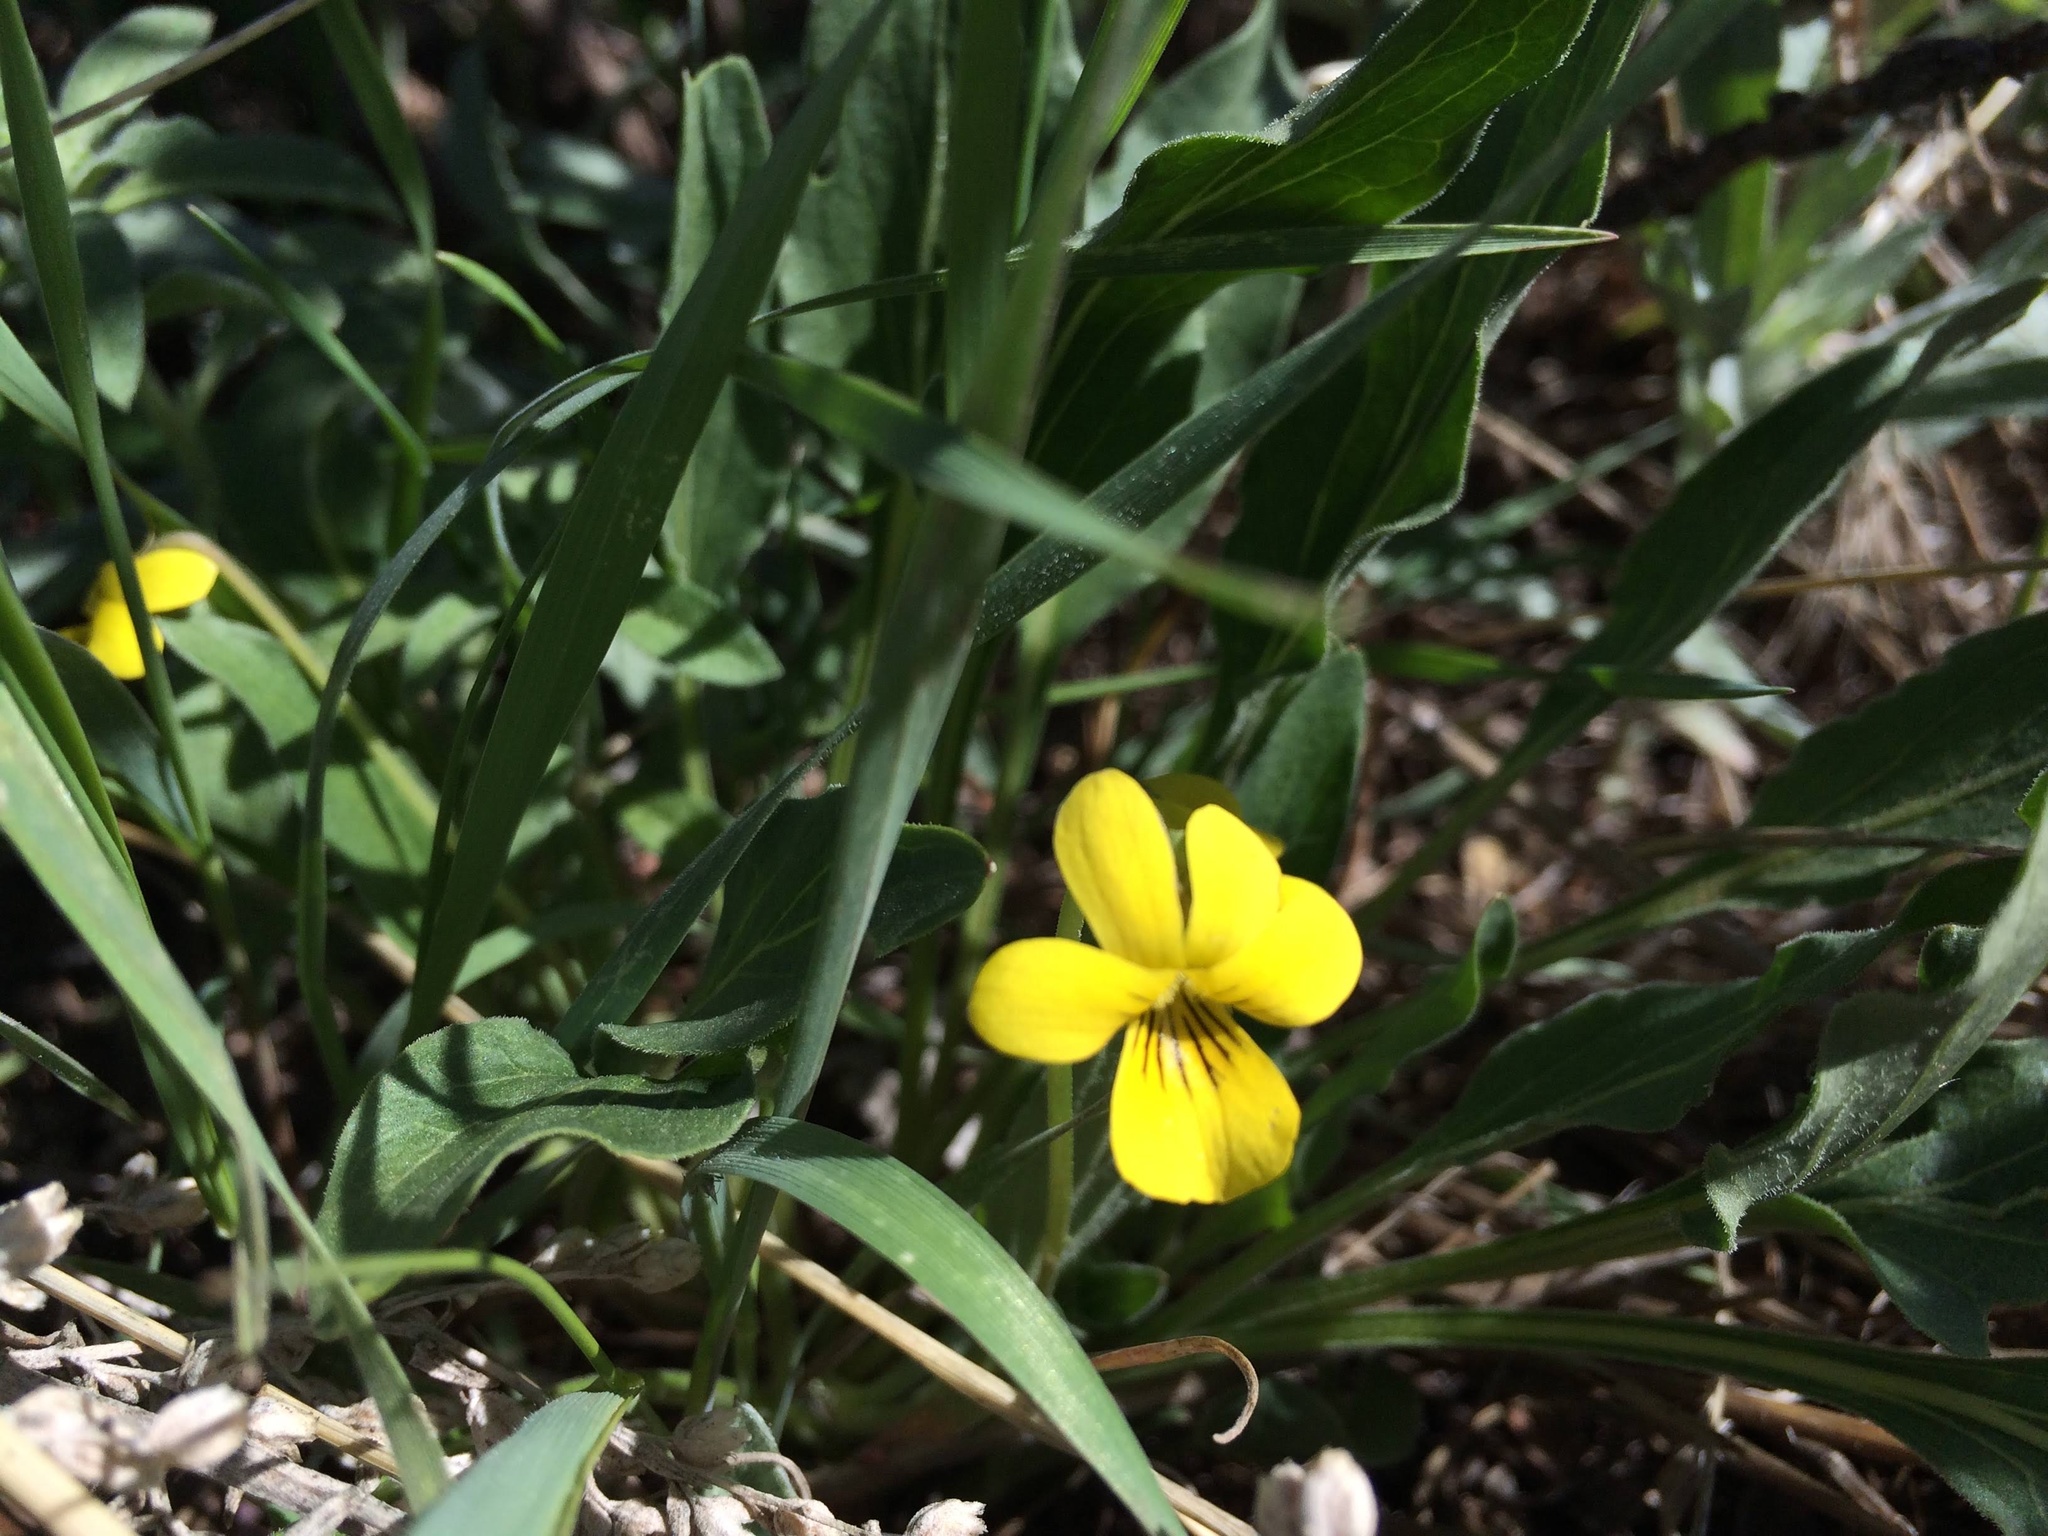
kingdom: Plantae
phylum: Tracheophyta
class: Magnoliopsida
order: Malpighiales
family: Violaceae
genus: Viola
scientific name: Viola nuttallii
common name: Yellow prairie violet
